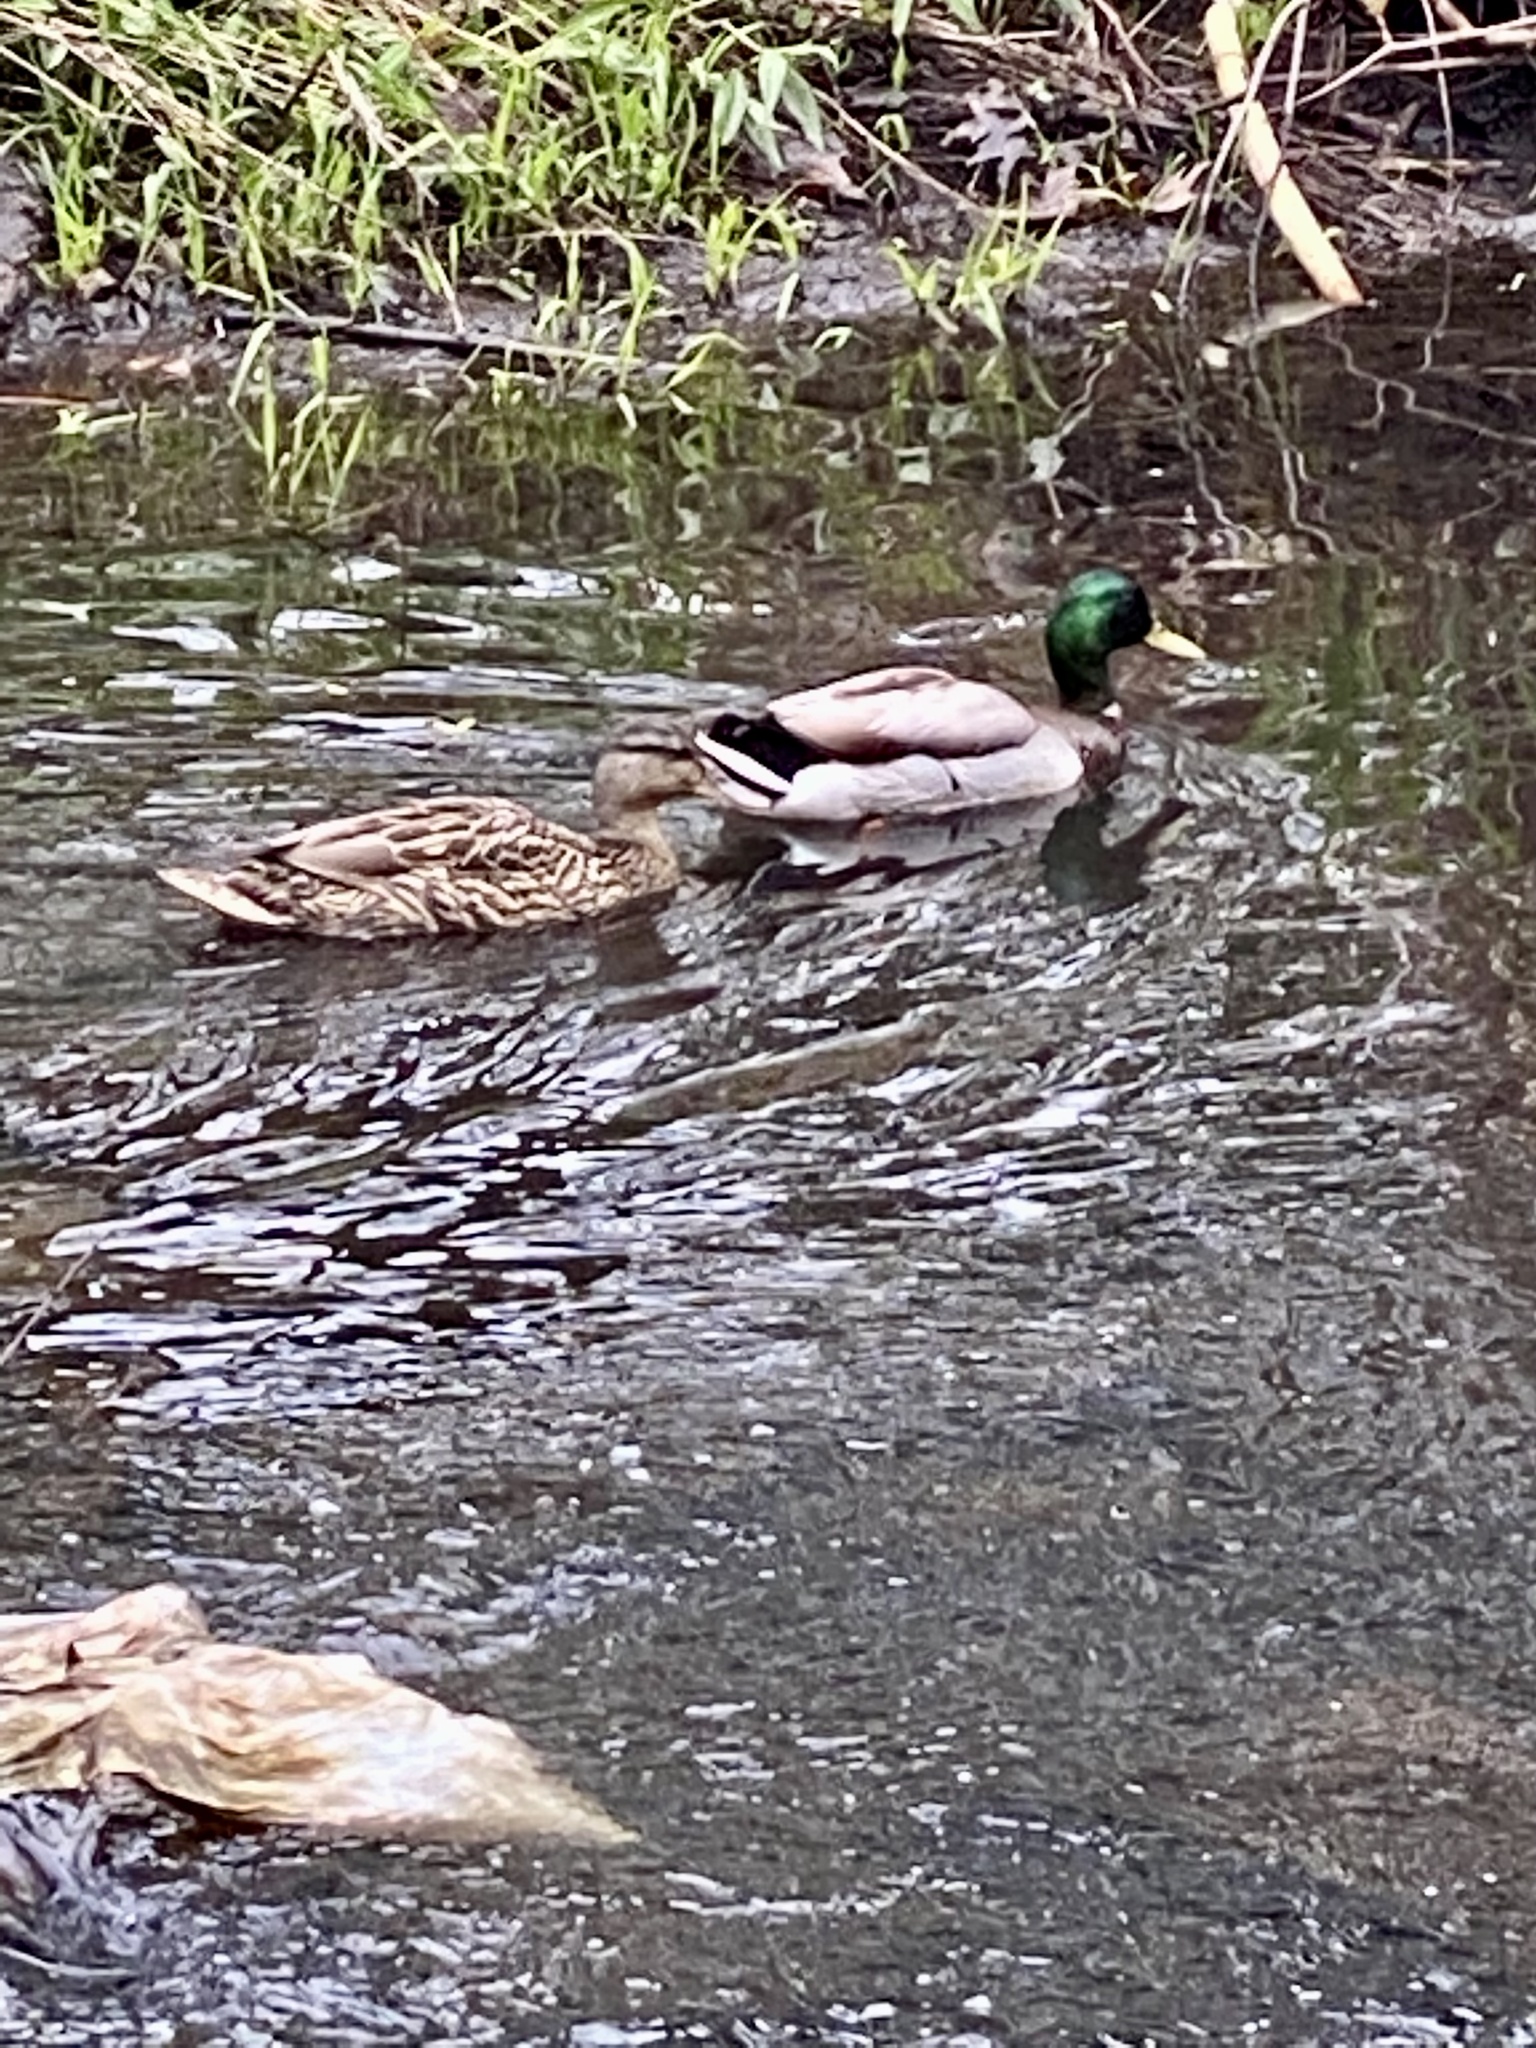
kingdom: Animalia
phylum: Chordata
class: Aves
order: Anseriformes
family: Anatidae
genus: Anas
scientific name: Anas platyrhynchos
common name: Mallard
